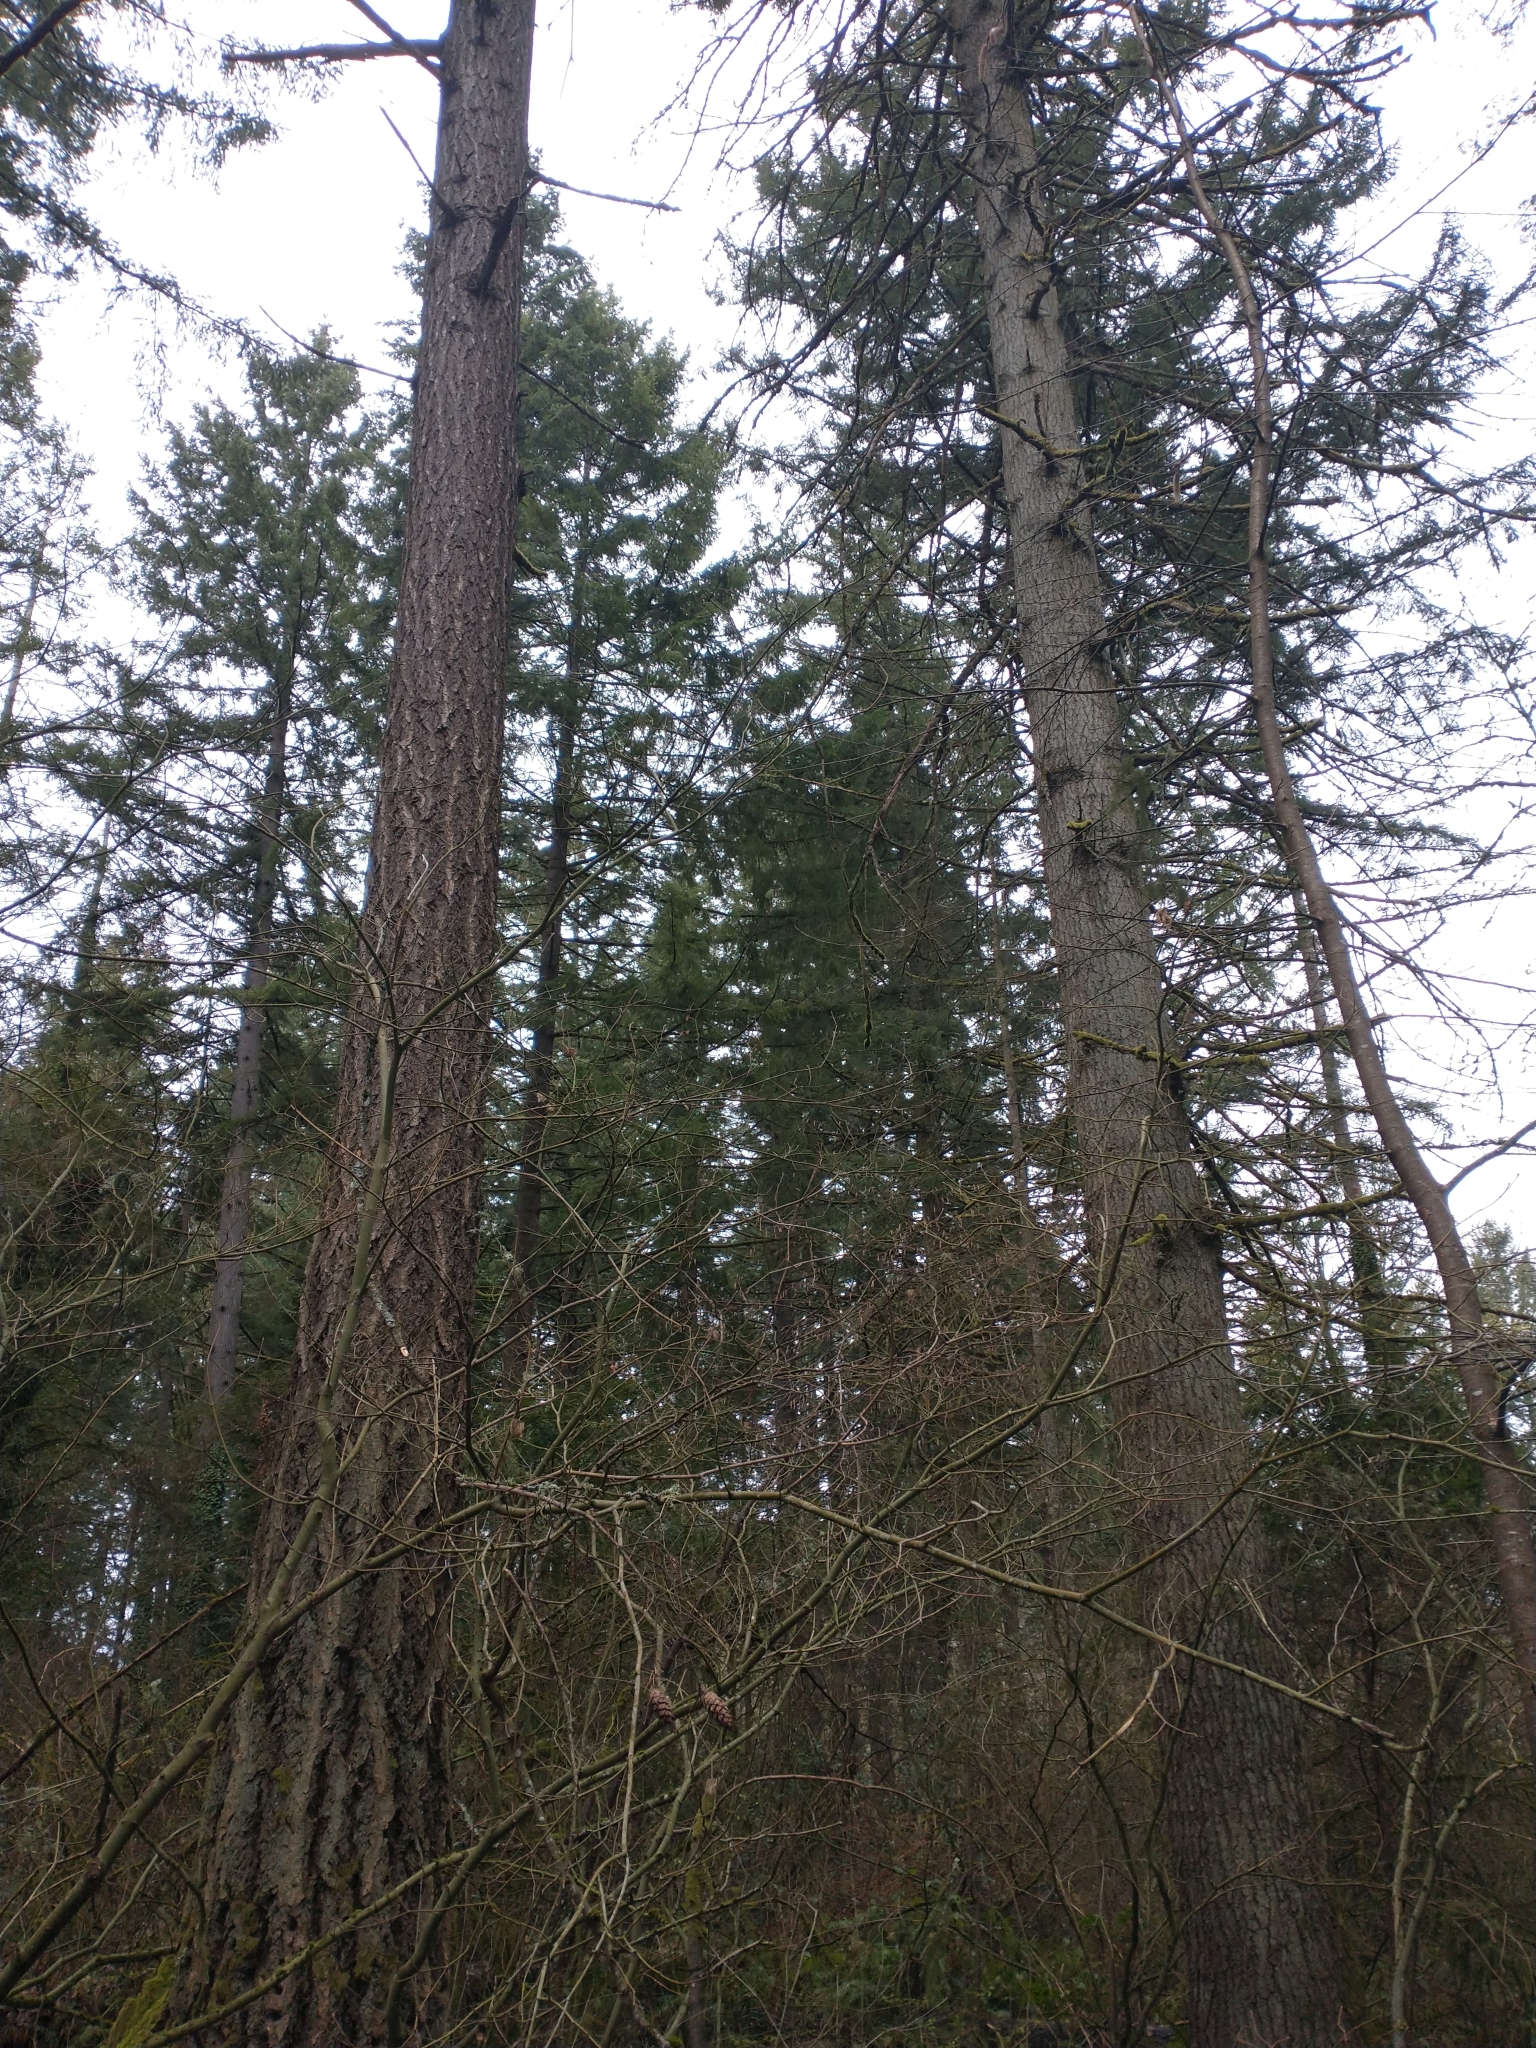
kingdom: Plantae
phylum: Tracheophyta
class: Pinopsida
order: Pinales
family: Pinaceae
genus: Pseudotsuga
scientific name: Pseudotsuga menziesii
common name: Douglas fir
